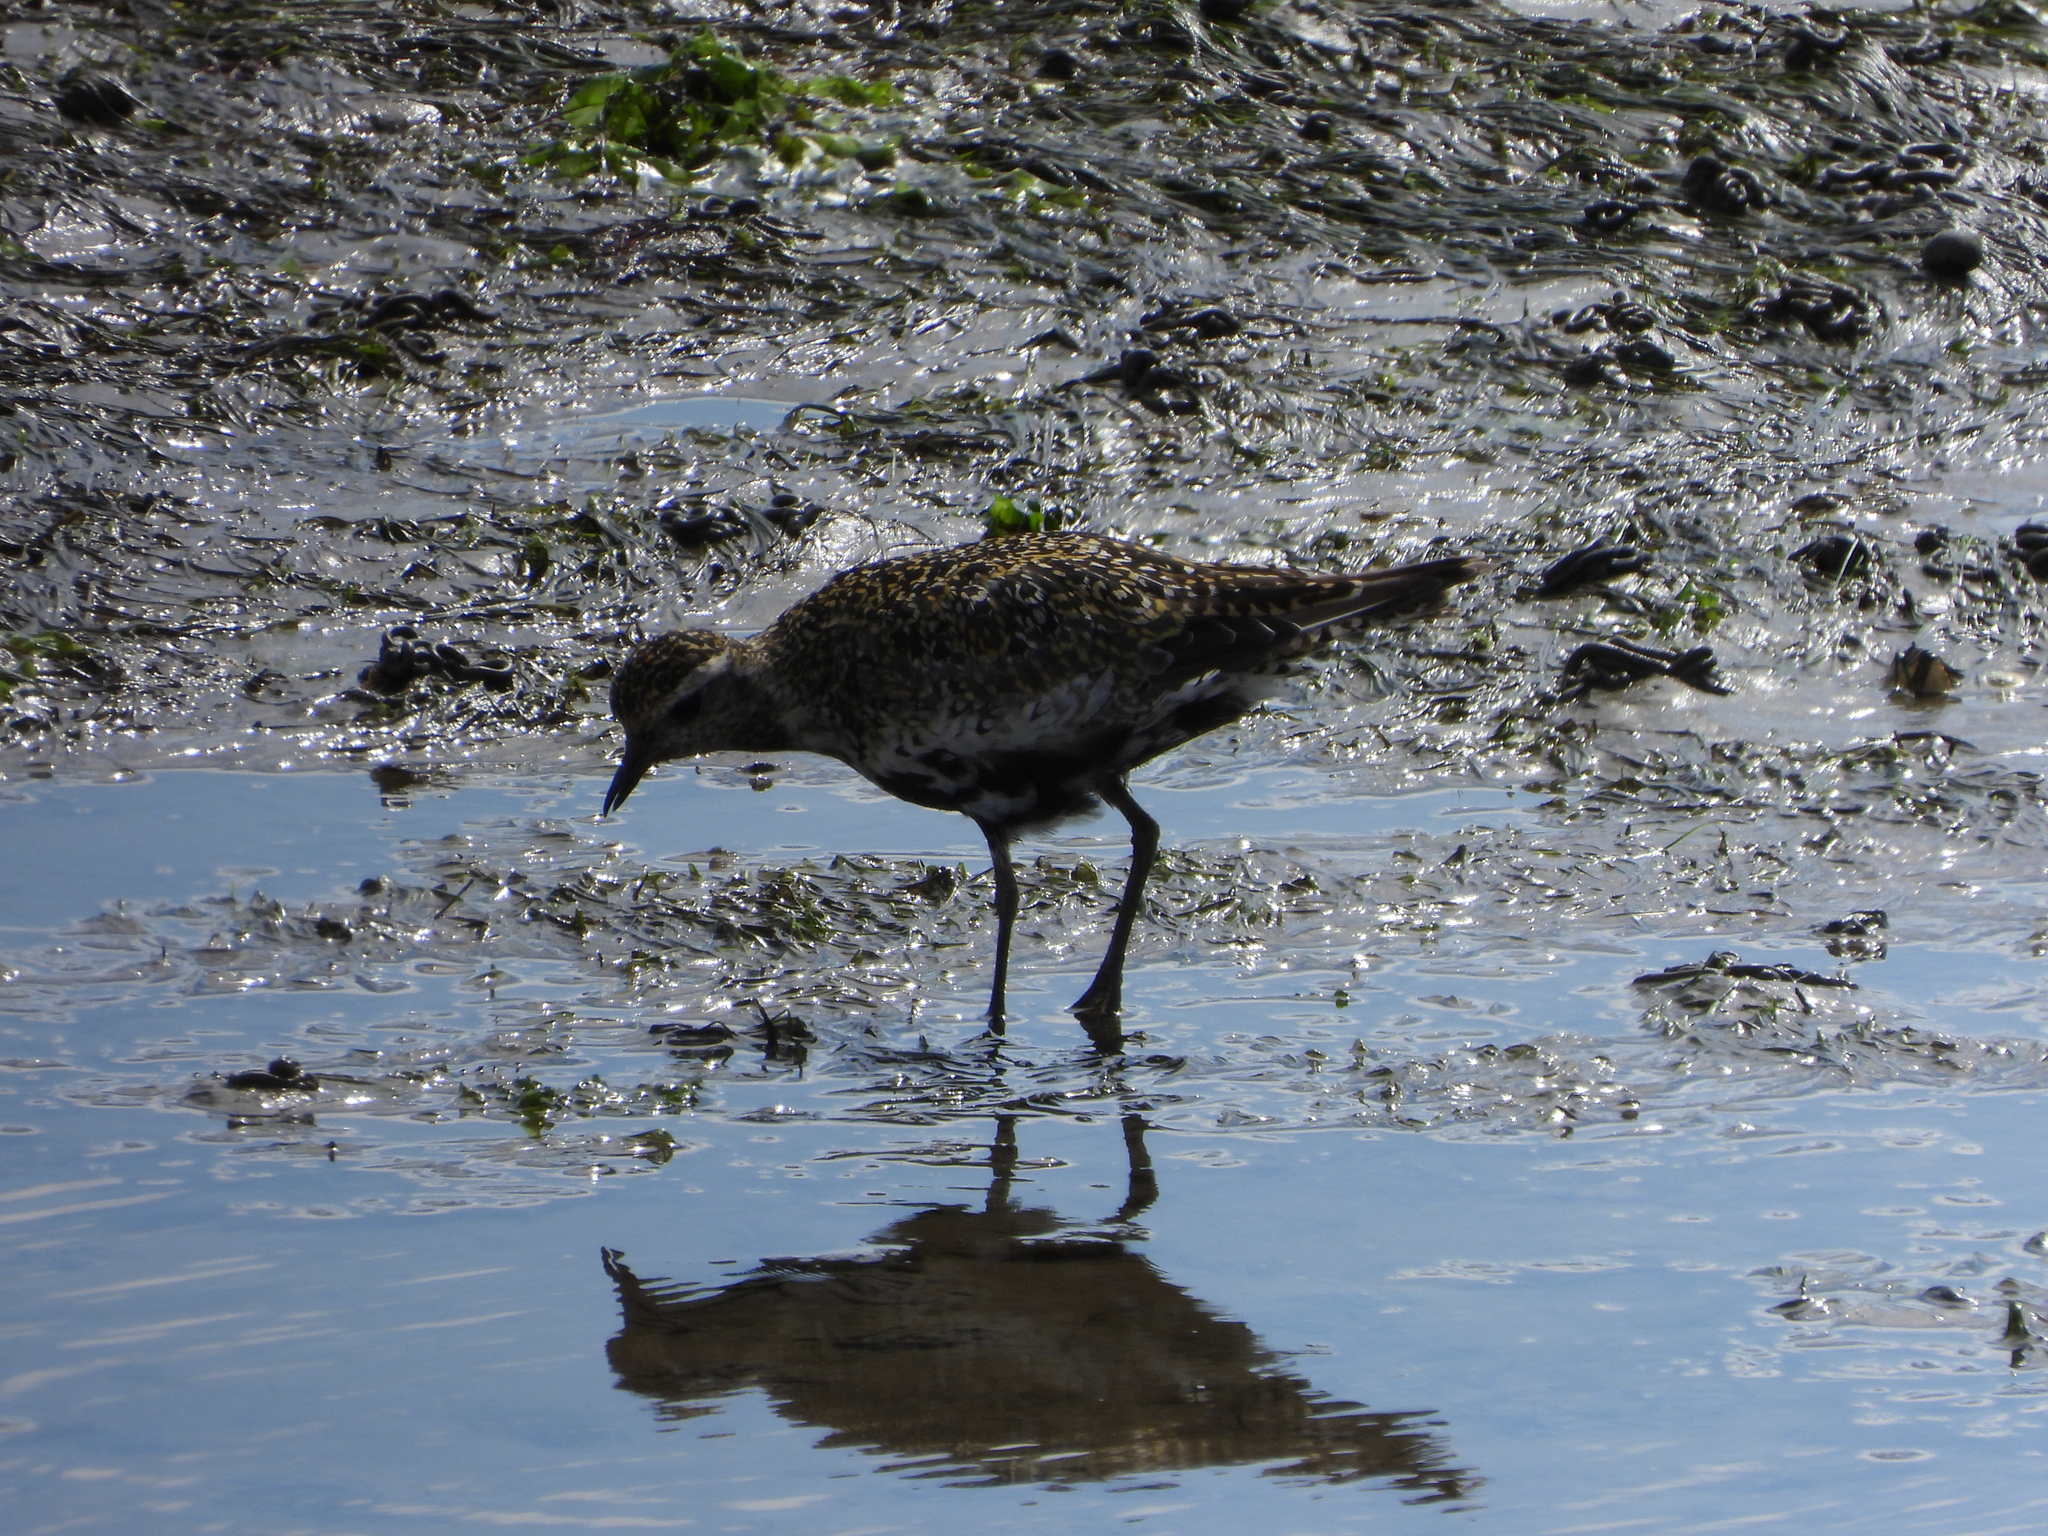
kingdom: Animalia
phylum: Chordata
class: Aves
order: Charadriiformes
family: Charadriidae
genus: Pluvialis
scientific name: Pluvialis apricaria
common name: European golden plover
